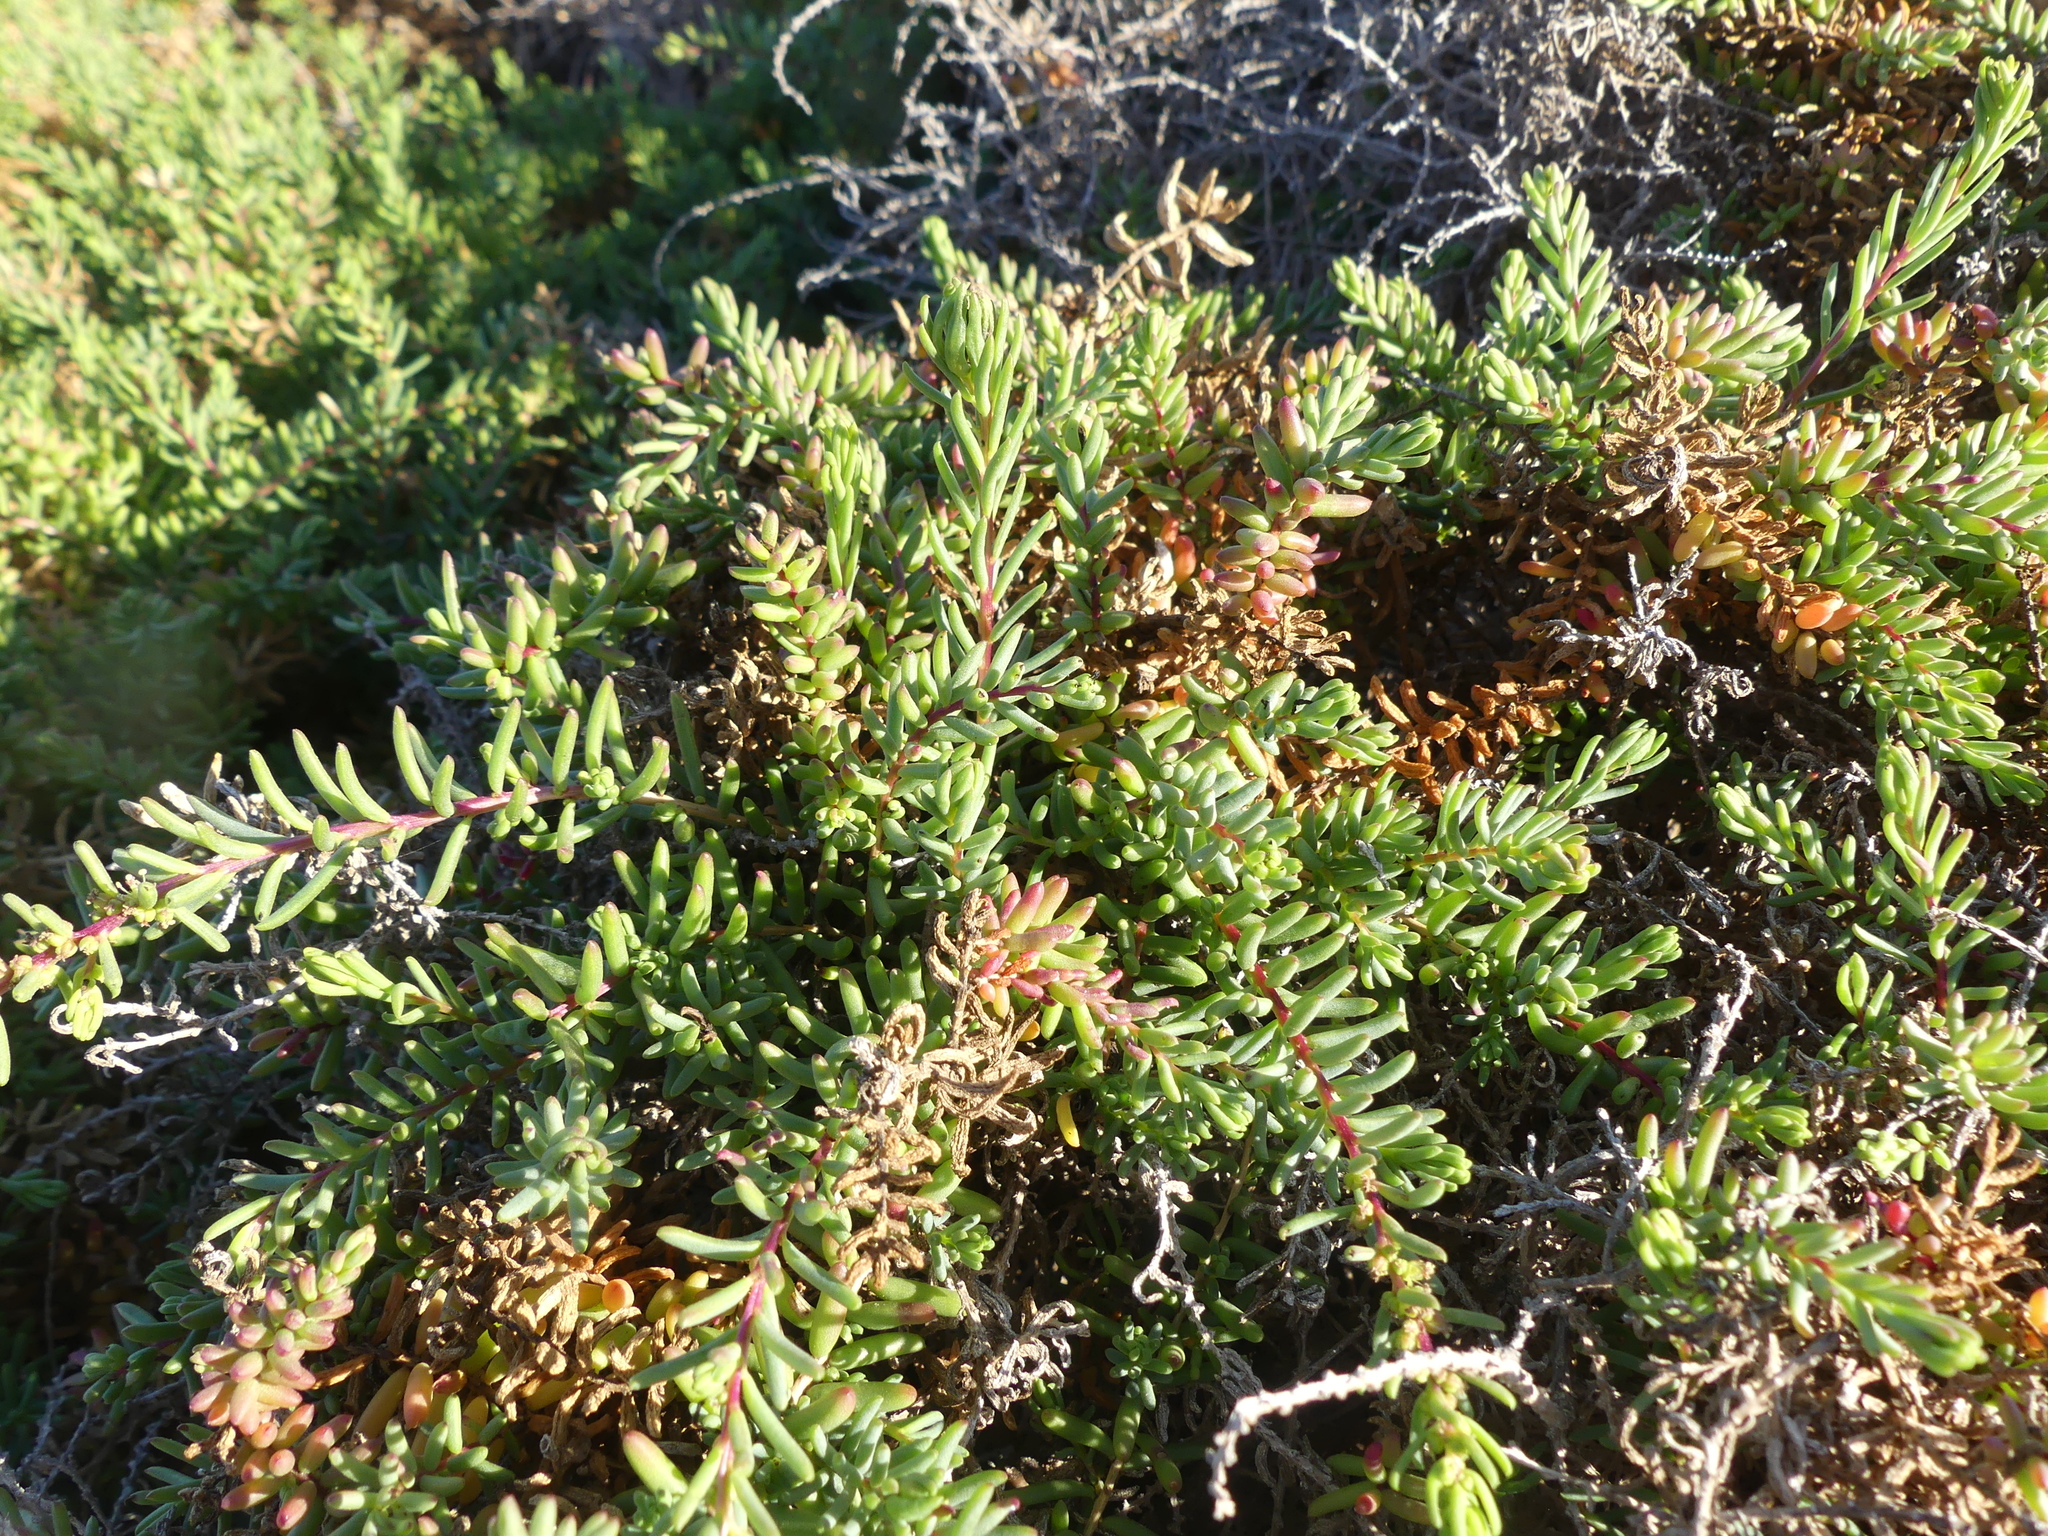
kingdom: Plantae
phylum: Tracheophyta
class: Magnoliopsida
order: Caryophyllales
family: Amaranthaceae
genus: Suaeda
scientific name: Suaeda vera
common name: Shrubby sea-blite
